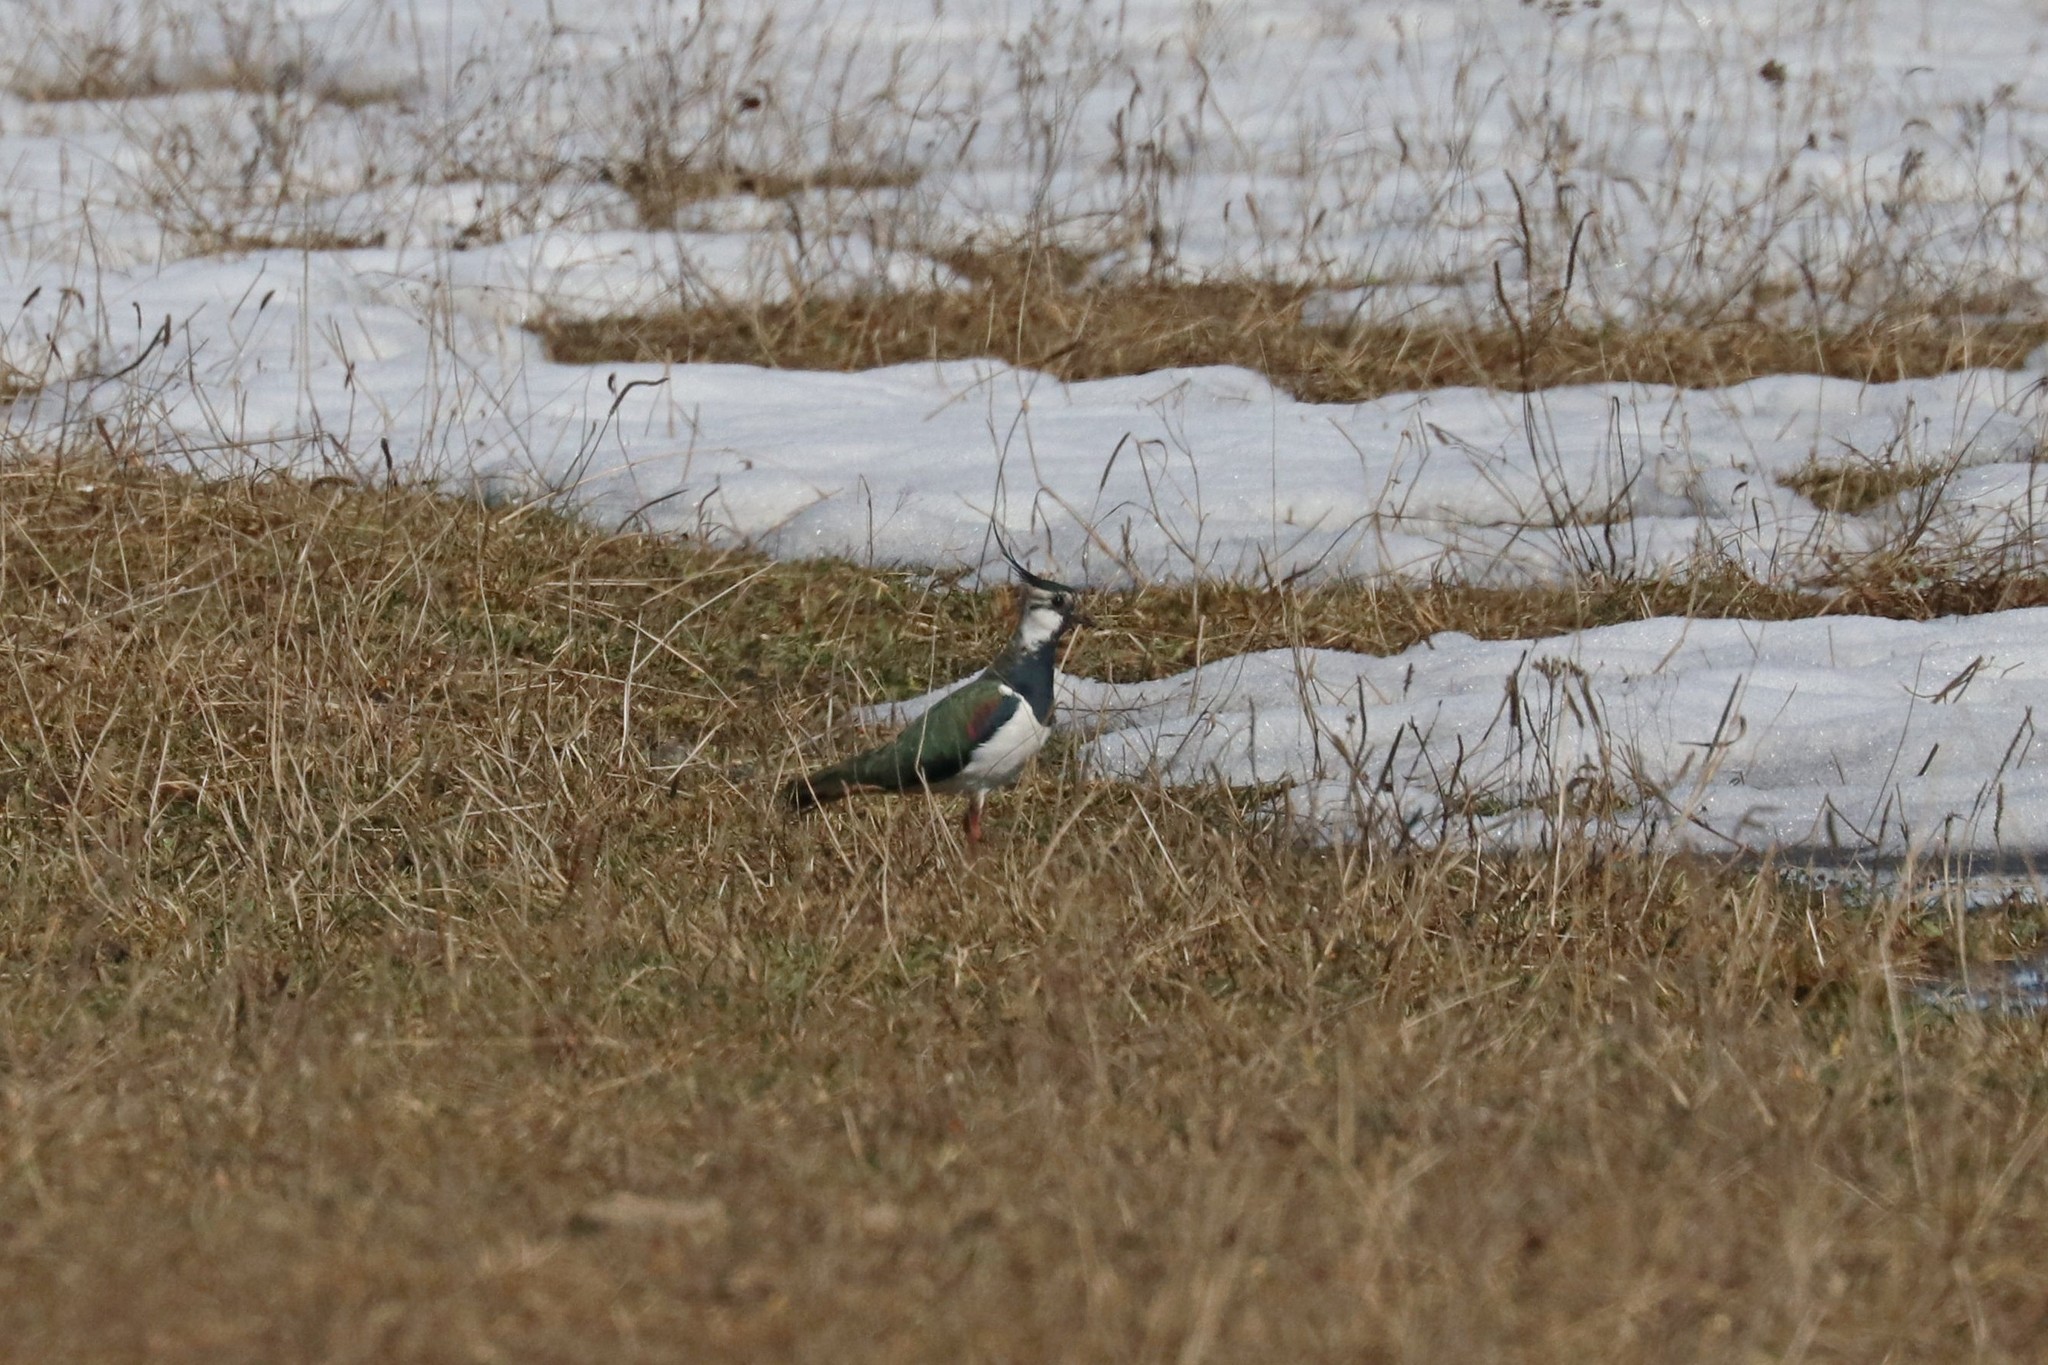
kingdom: Animalia
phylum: Chordata
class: Aves
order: Charadriiformes
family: Charadriidae
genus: Vanellus
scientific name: Vanellus vanellus
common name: Northern lapwing
